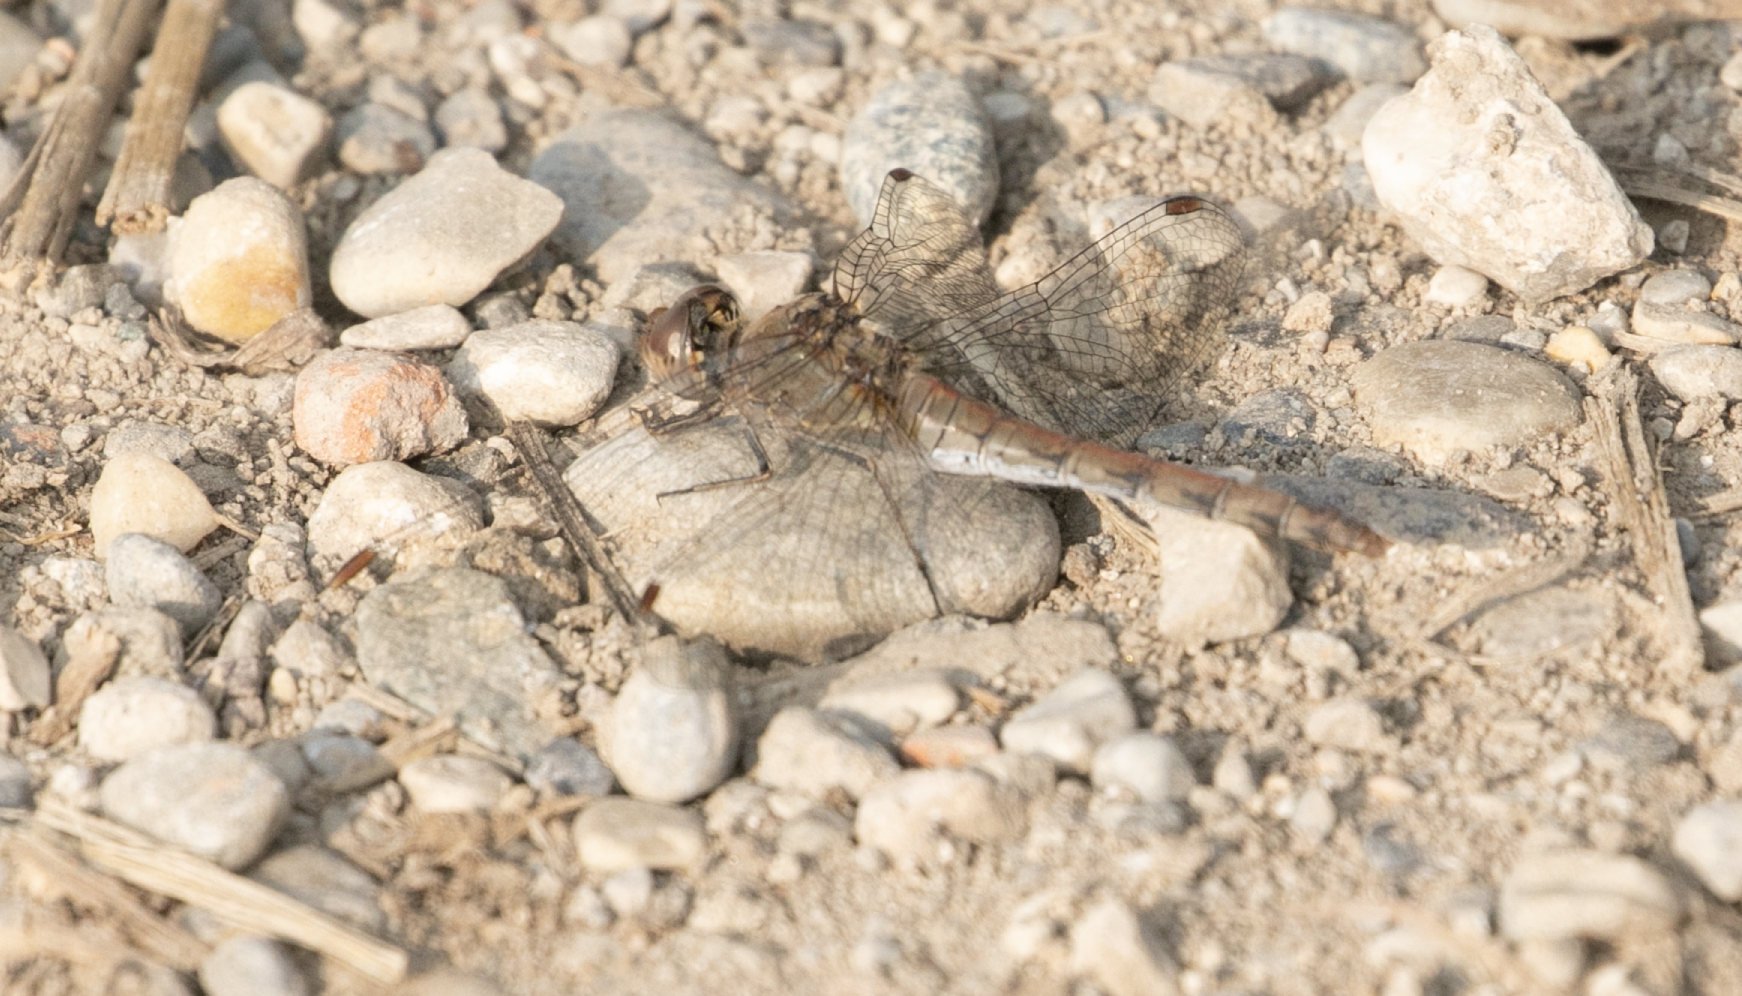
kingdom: Animalia
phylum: Arthropoda
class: Insecta
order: Odonata
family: Libellulidae
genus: Sympetrum
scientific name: Sympetrum striolatum
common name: Common darter
